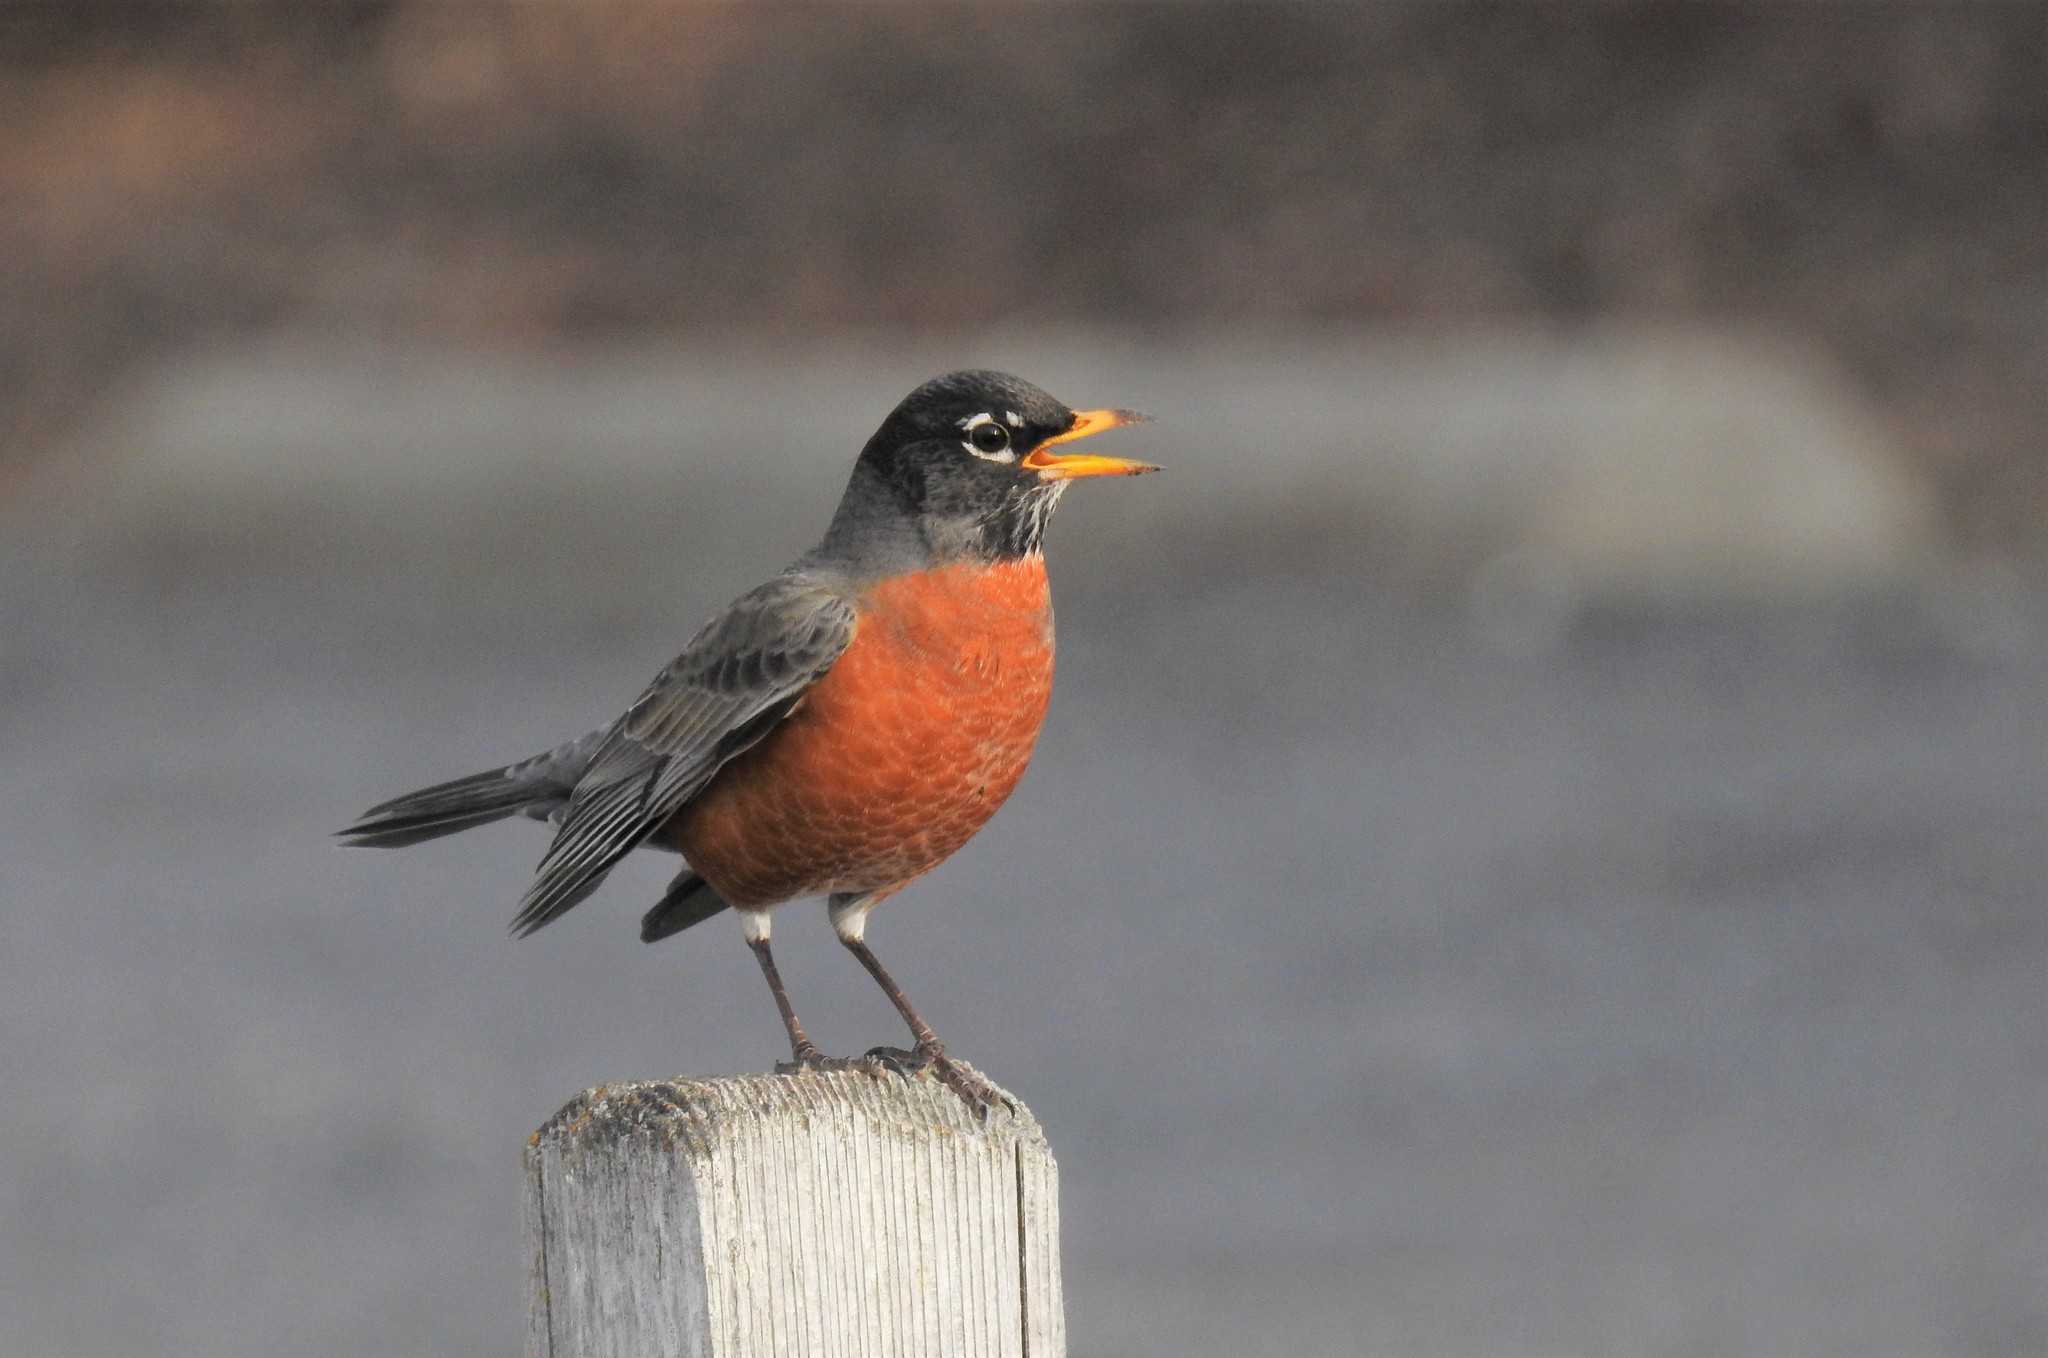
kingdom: Animalia
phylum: Chordata
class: Aves
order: Passeriformes
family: Turdidae
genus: Turdus
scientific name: Turdus migratorius
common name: American robin
